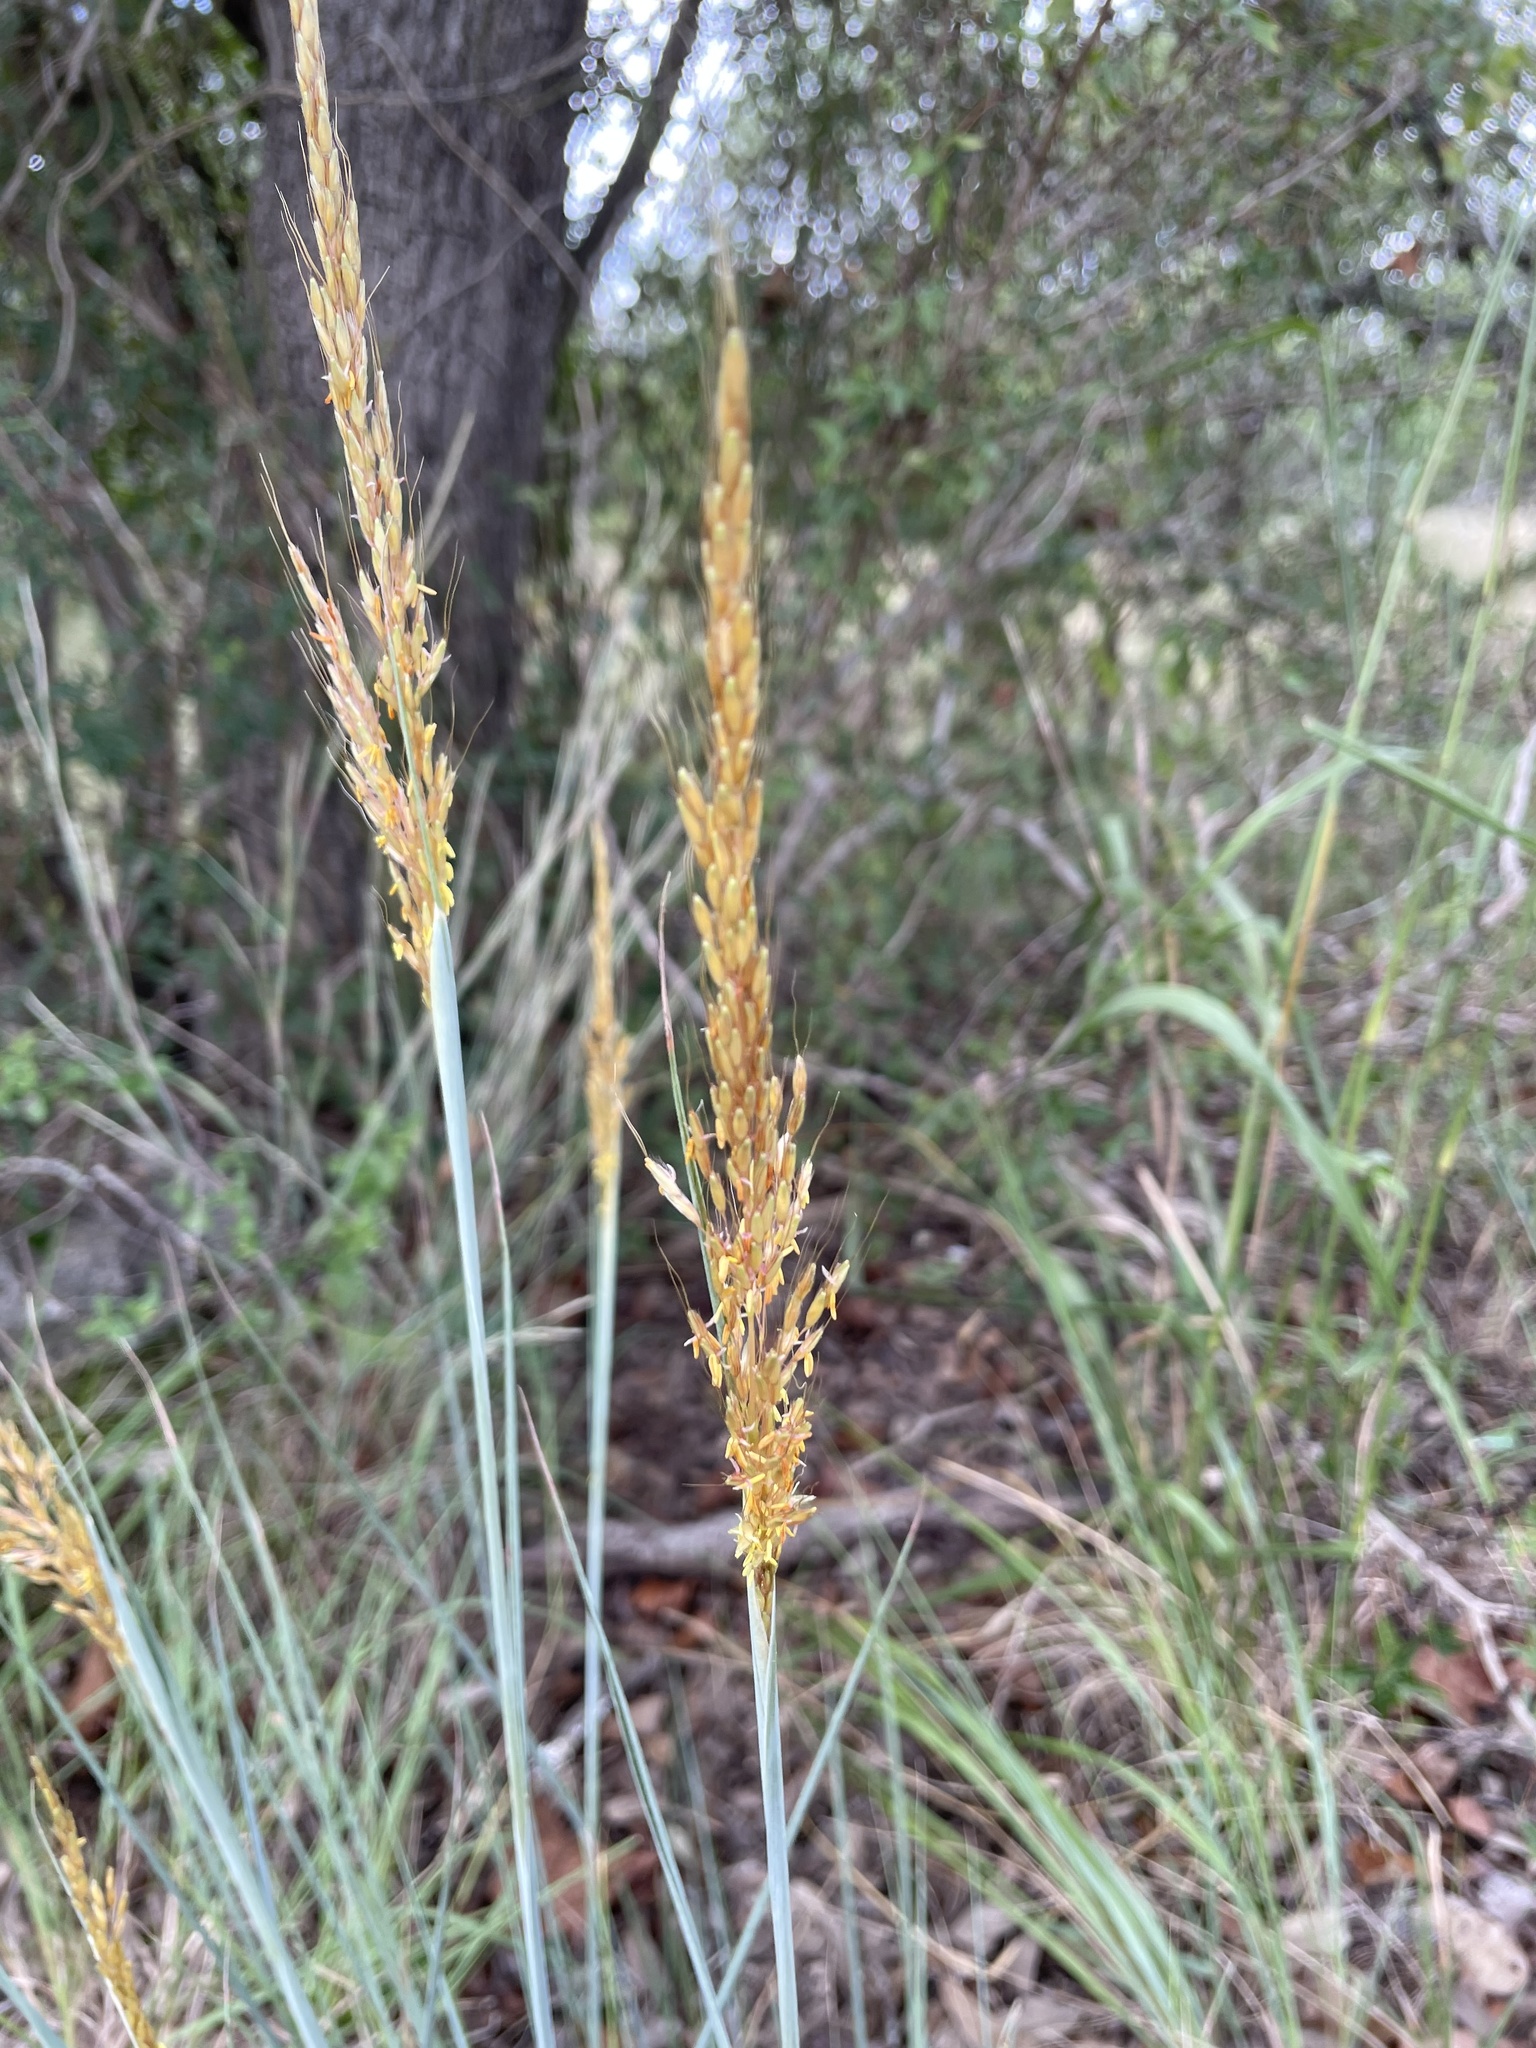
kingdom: Plantae
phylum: Tracheophyta
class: Liliopsida
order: Poales
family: Poaceae
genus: Sorghastrum
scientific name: Sorghastrum nutans
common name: Indian grass
